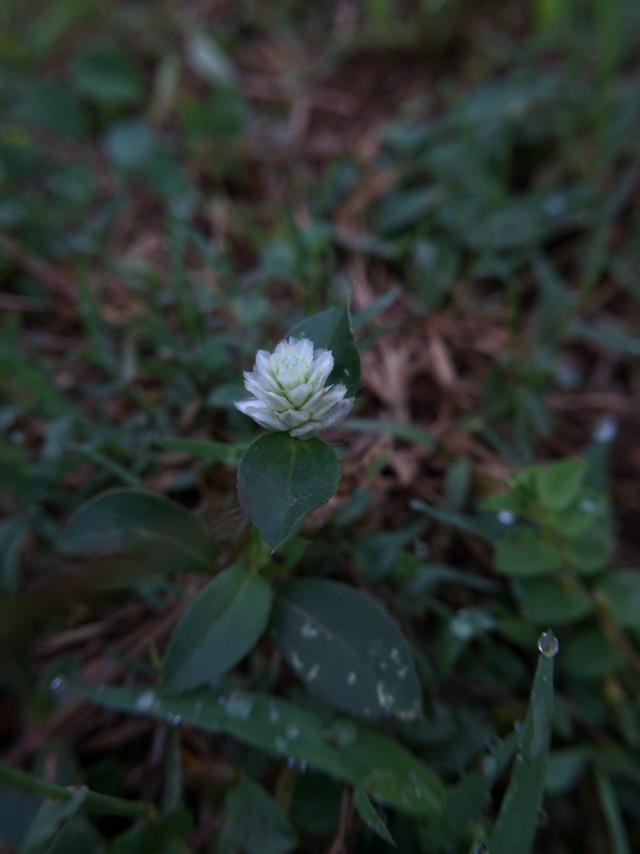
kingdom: Plantae
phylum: Tracheophyta
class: Magnoliopsida
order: Caryophyllales
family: Amaranthaceae
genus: Gomphrena
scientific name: Gomphrena serrata
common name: Arrasa con todo
